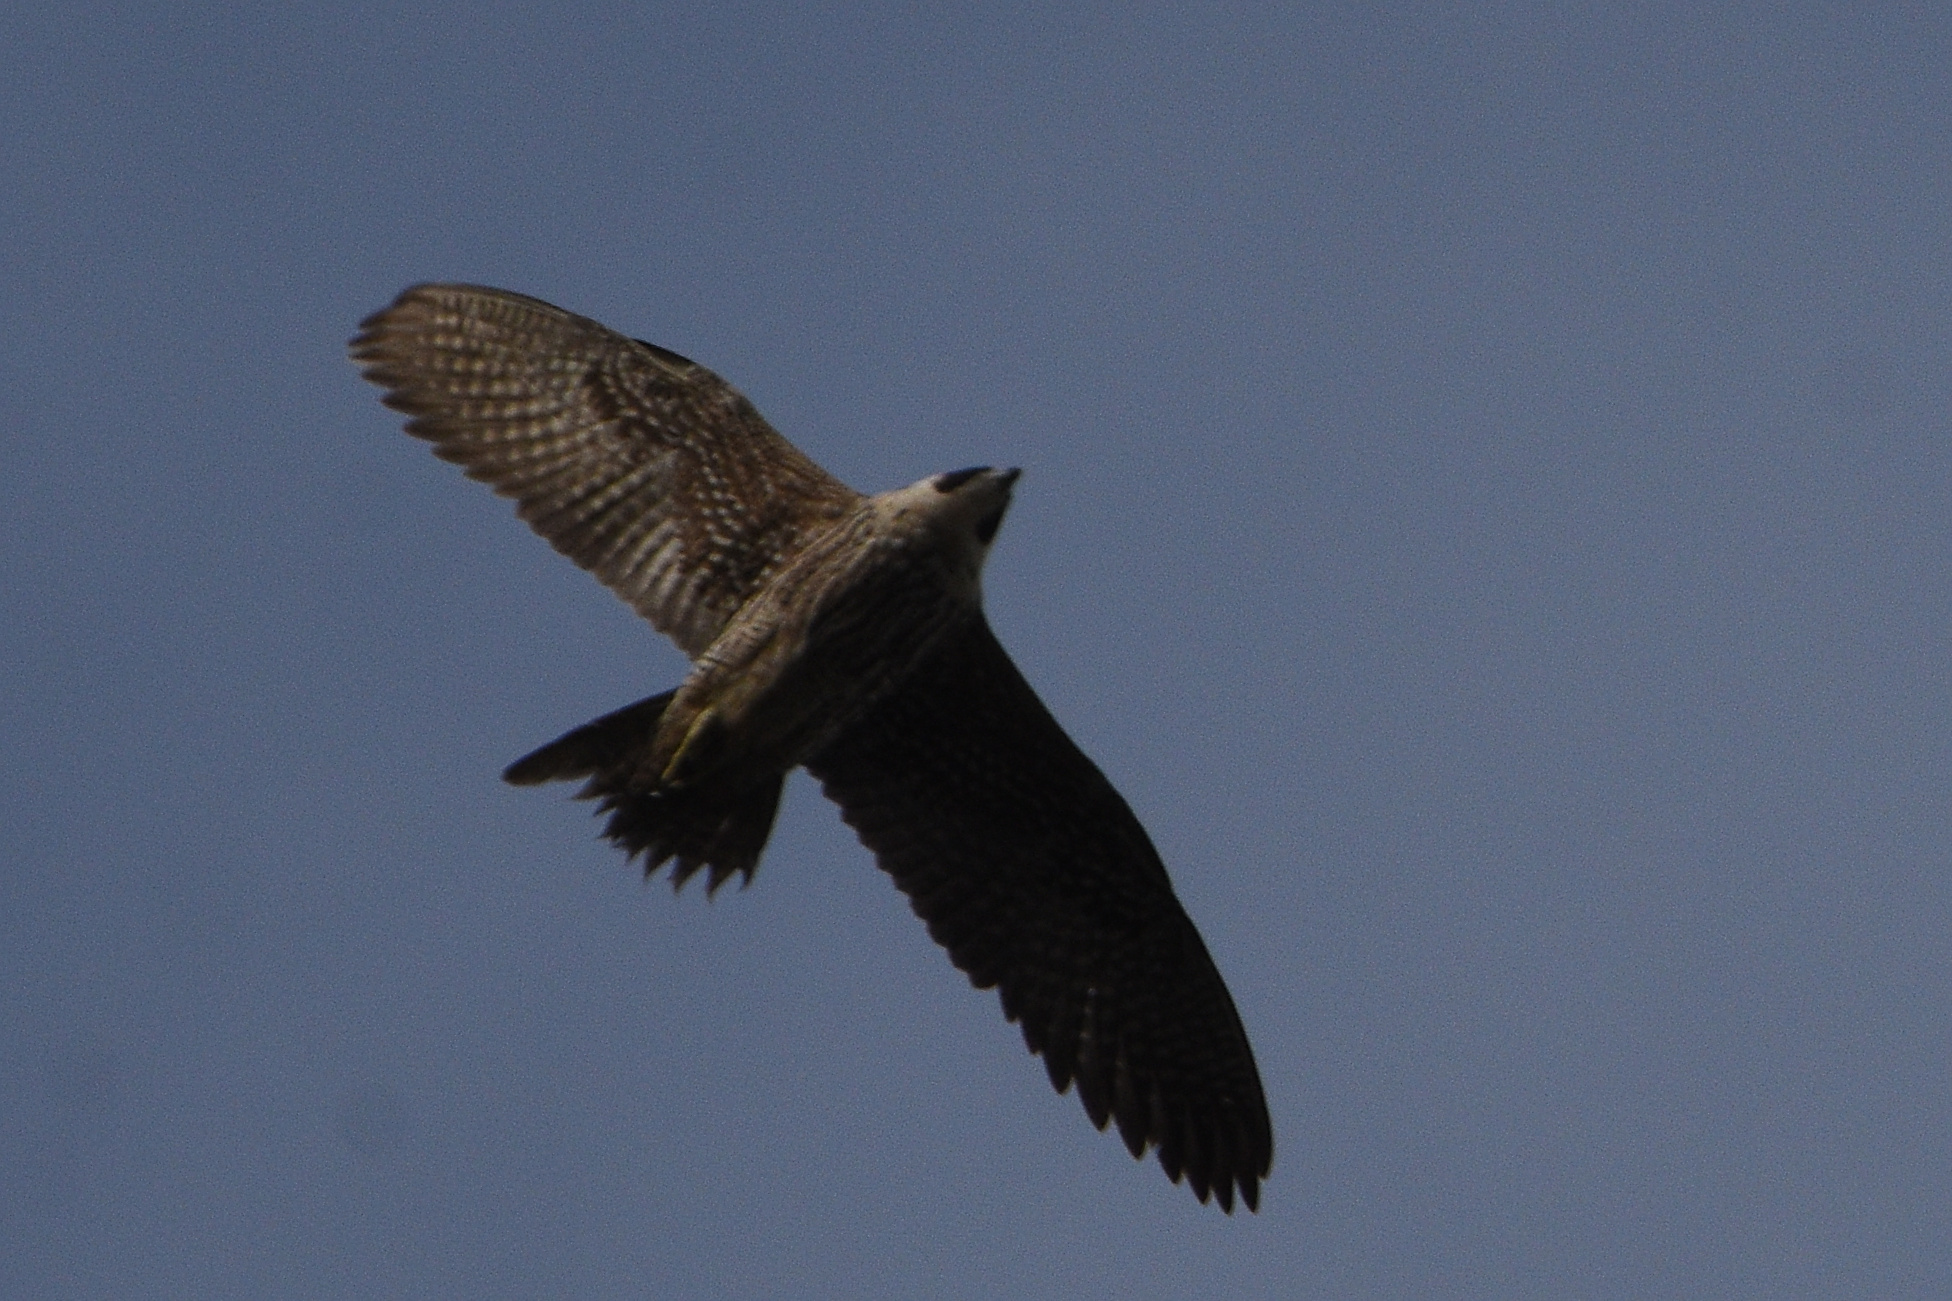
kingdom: Animalia
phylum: Chordata
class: Aves
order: Falconiformes
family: Falconidae
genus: Falco
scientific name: Falco peregrinus
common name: Peregrine falcon
